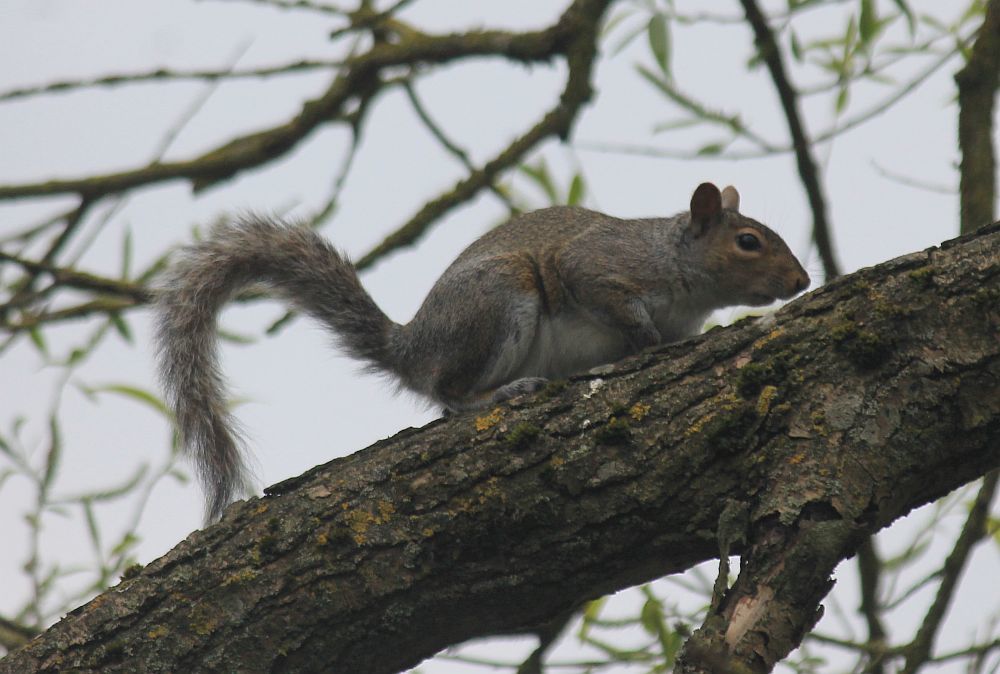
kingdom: Animalia
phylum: Chordata
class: Mammalia
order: Rodentia
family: Sciuridae
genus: Sciurus
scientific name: Sciurus carolinensis
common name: Eastern gray squirrel
